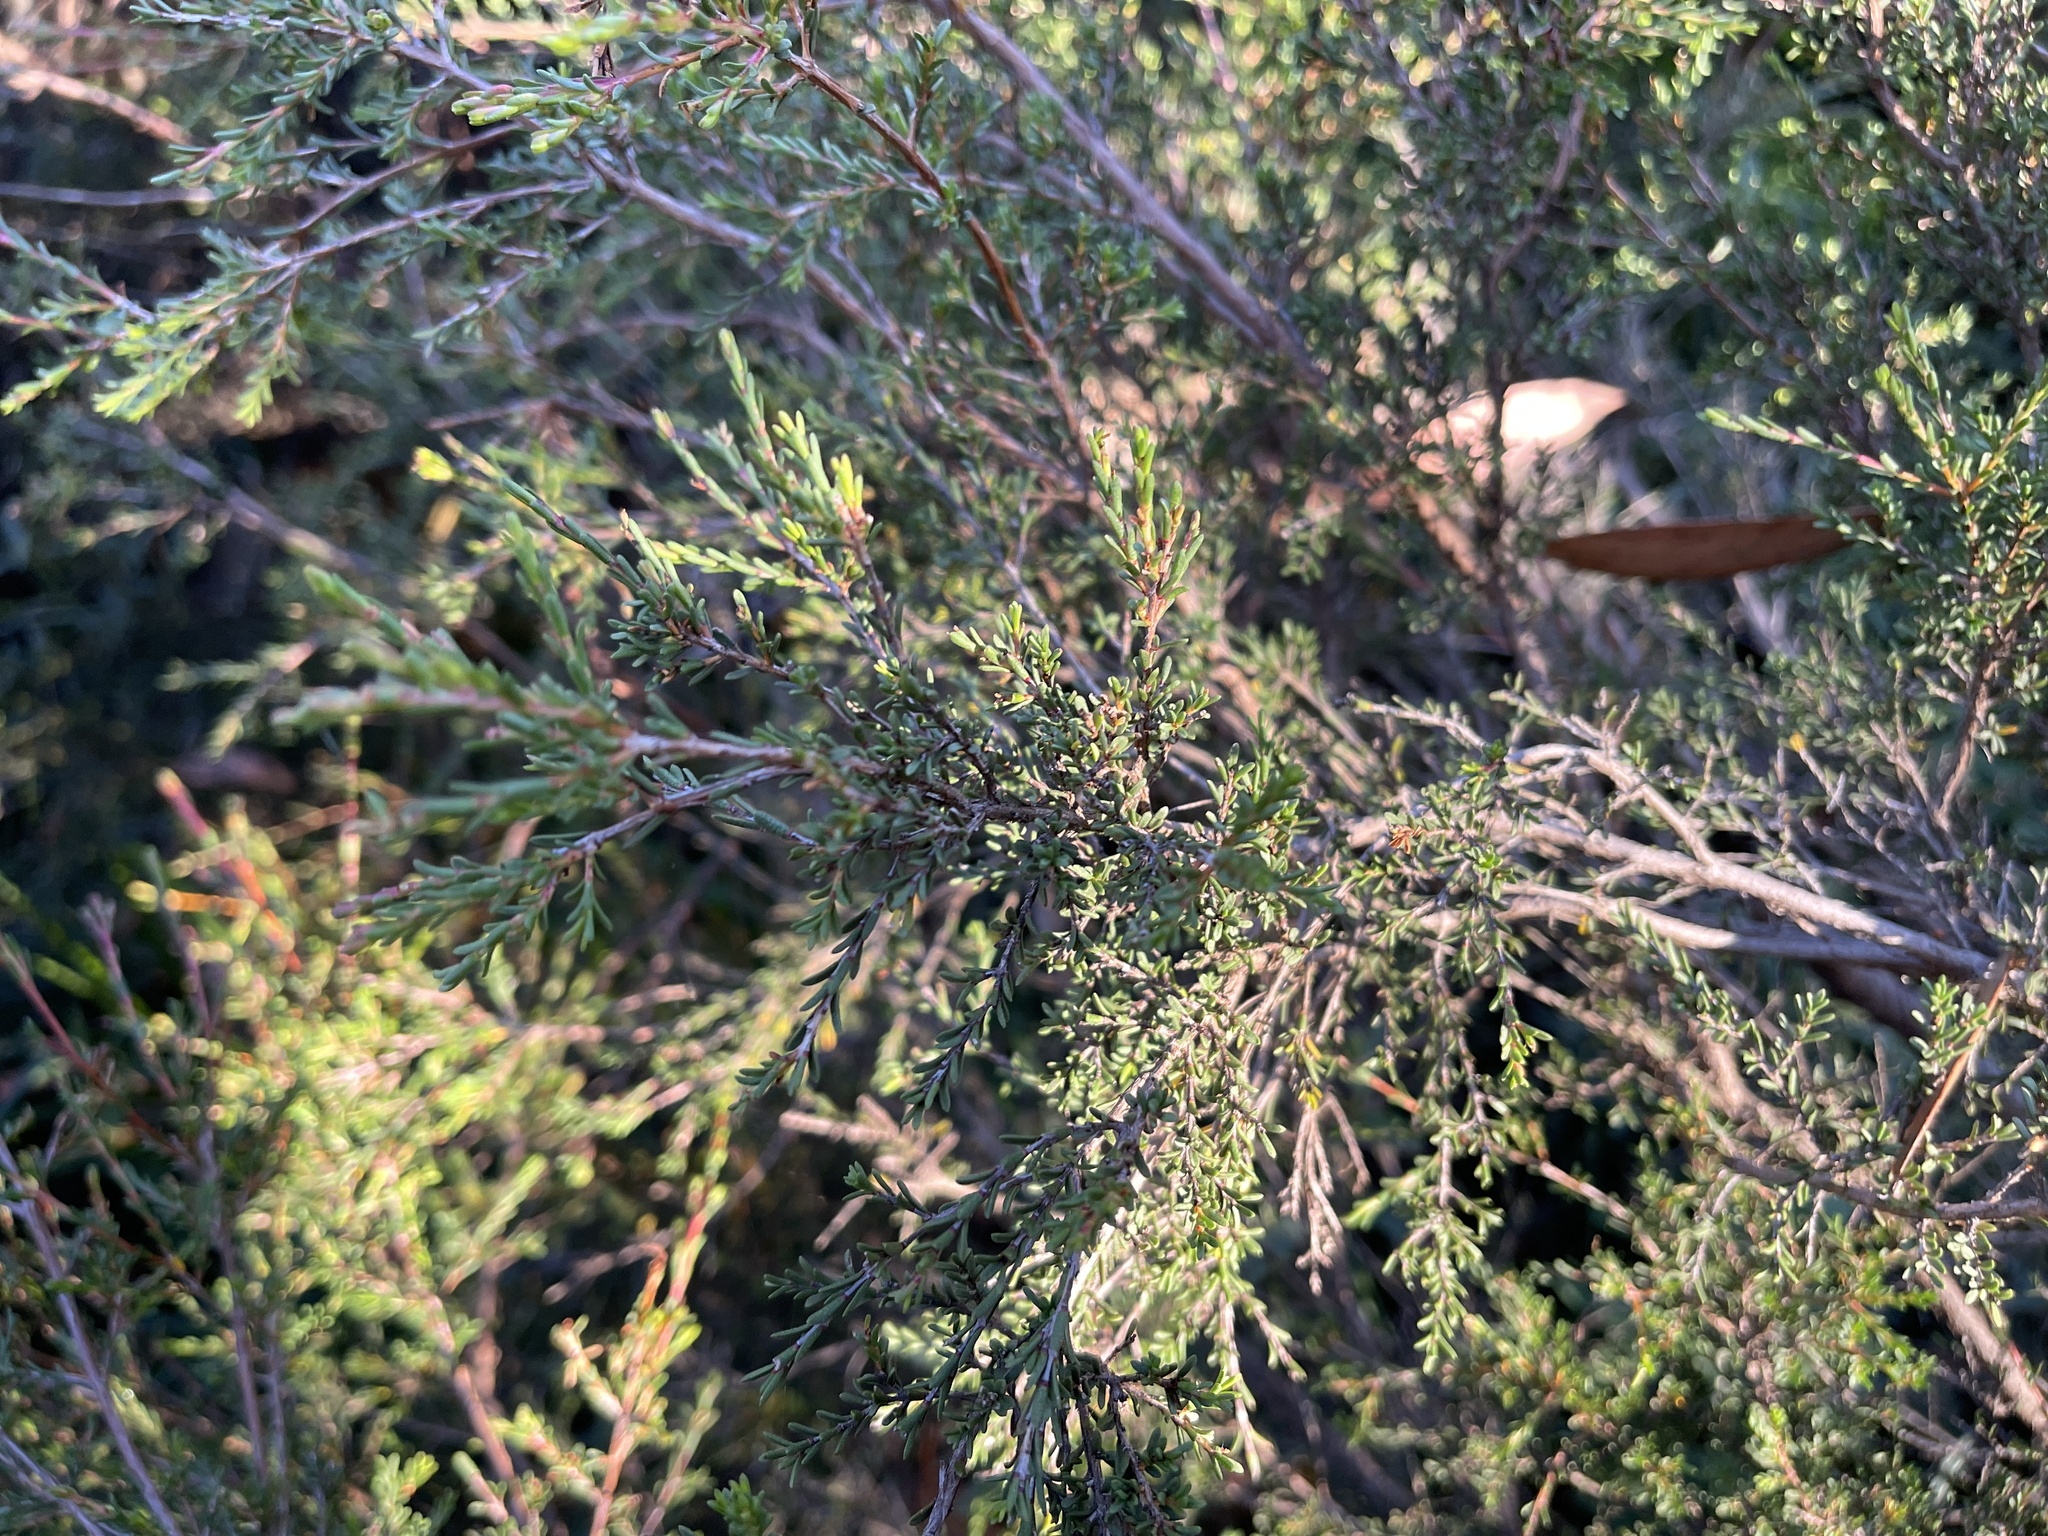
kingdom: Plantae
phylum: Tracheophyta
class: Magnoliopsida
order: Myrtales
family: Myrtaceae
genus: Baeckea
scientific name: Baeckea gunniana
